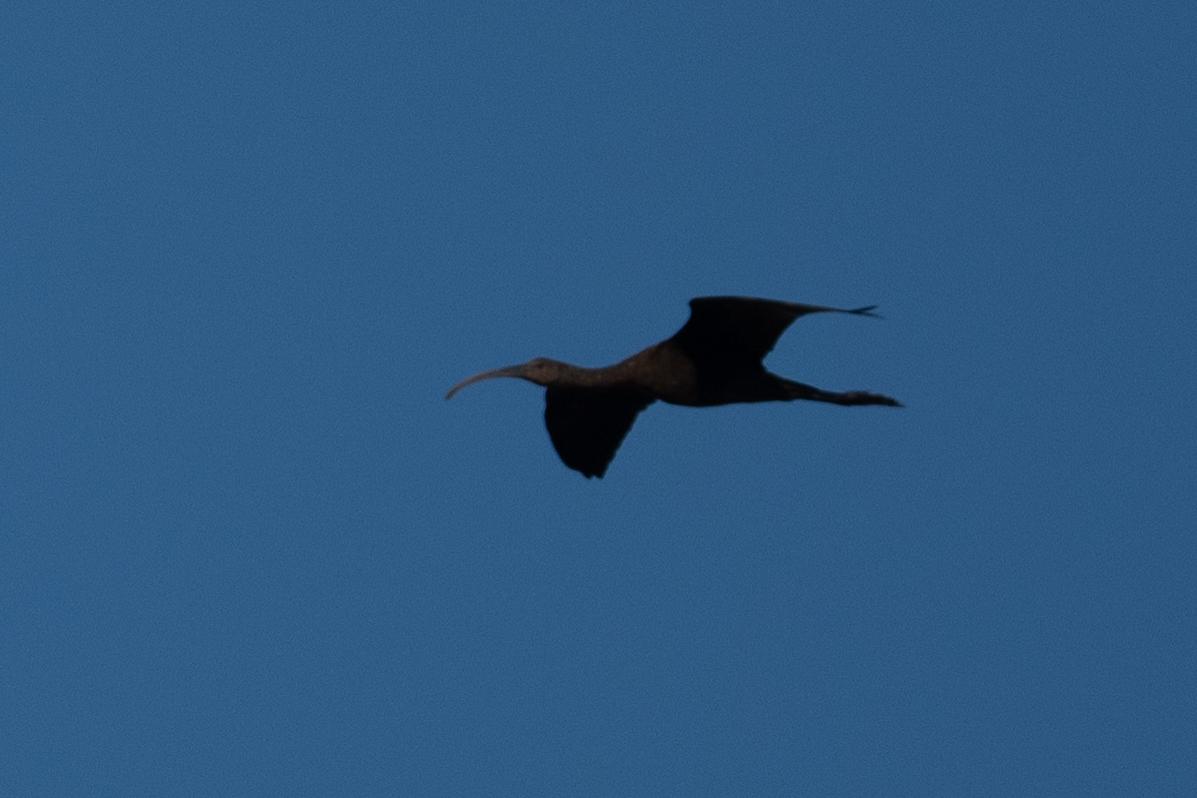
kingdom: Animalia
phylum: Chordata
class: Aves
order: Pelecaniformes
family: Threskiornithidae
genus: Plegadis
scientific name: Plegadis chihi
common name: White-faced ibis
